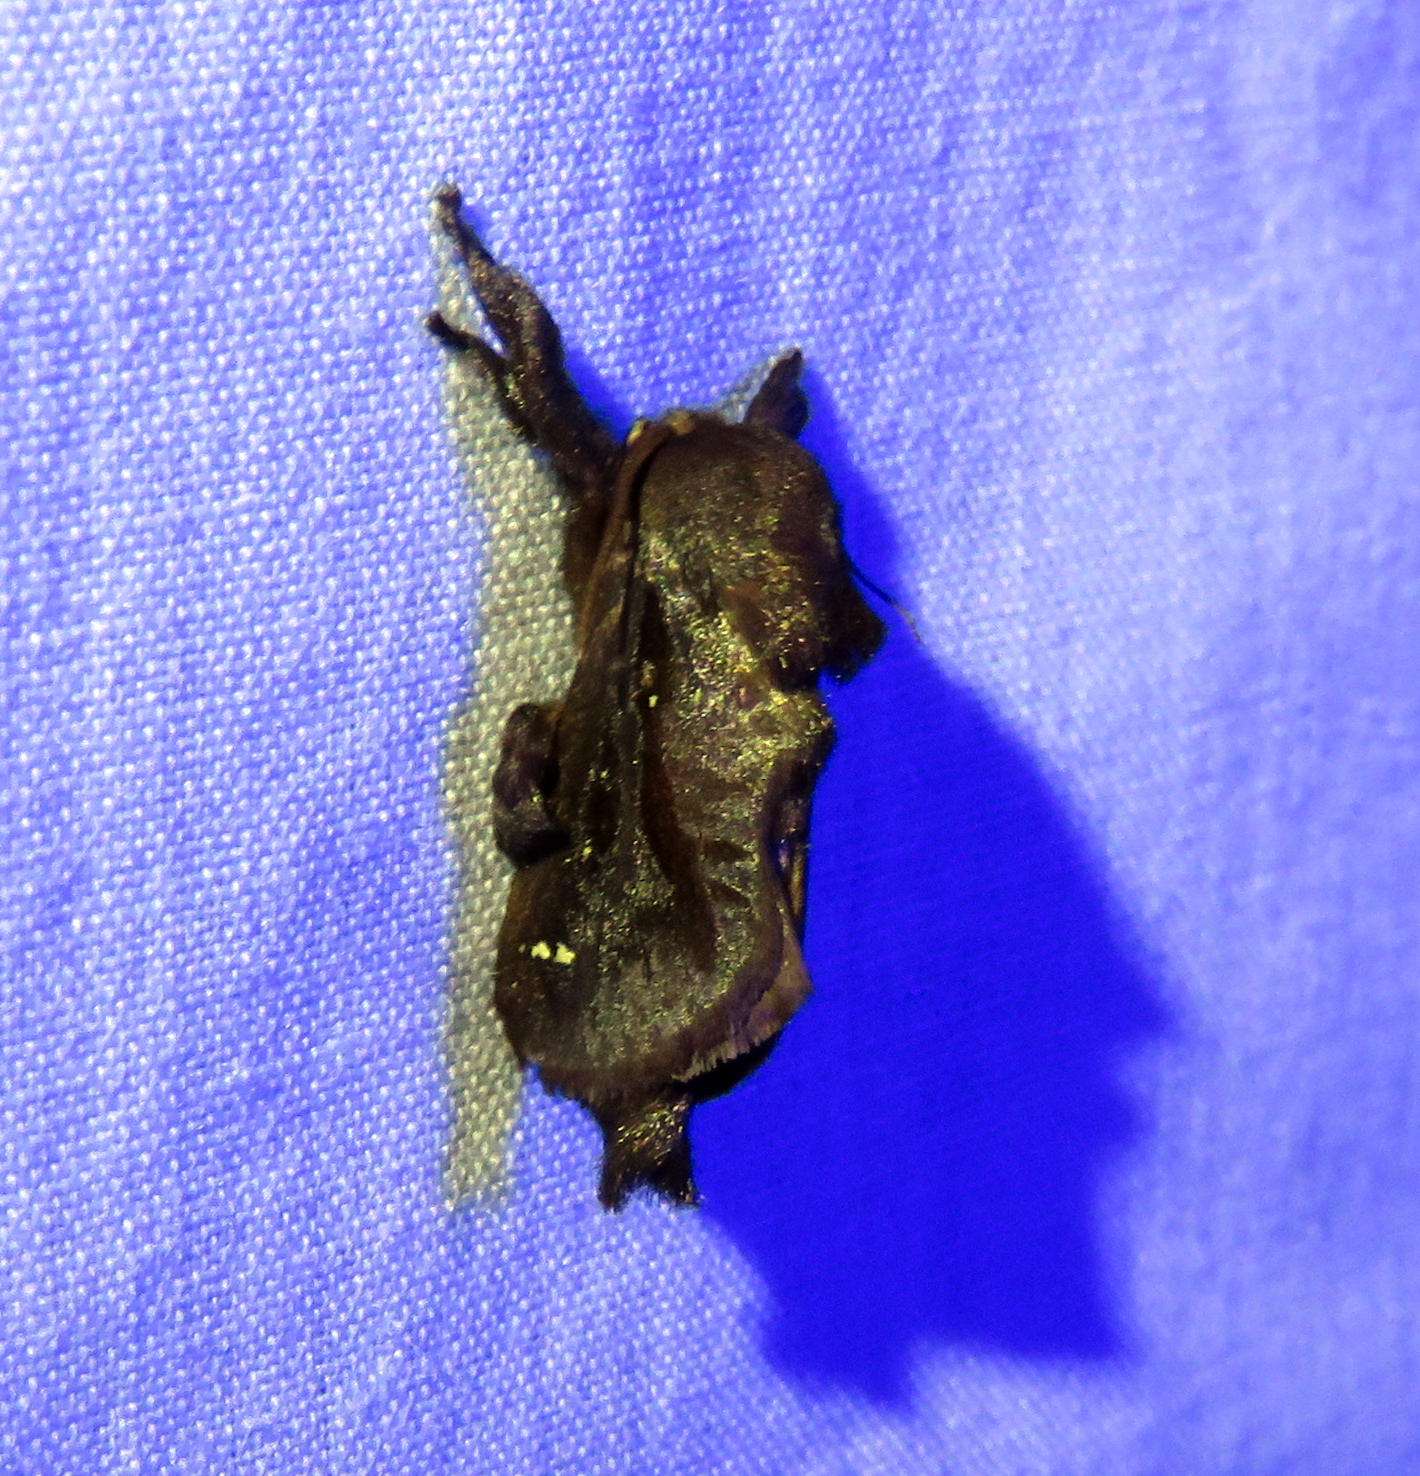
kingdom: Animalia
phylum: Arthropoda
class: Insecta
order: Lepidoptera
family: Limacodidae
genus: Acharia
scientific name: Acharia stimulea
